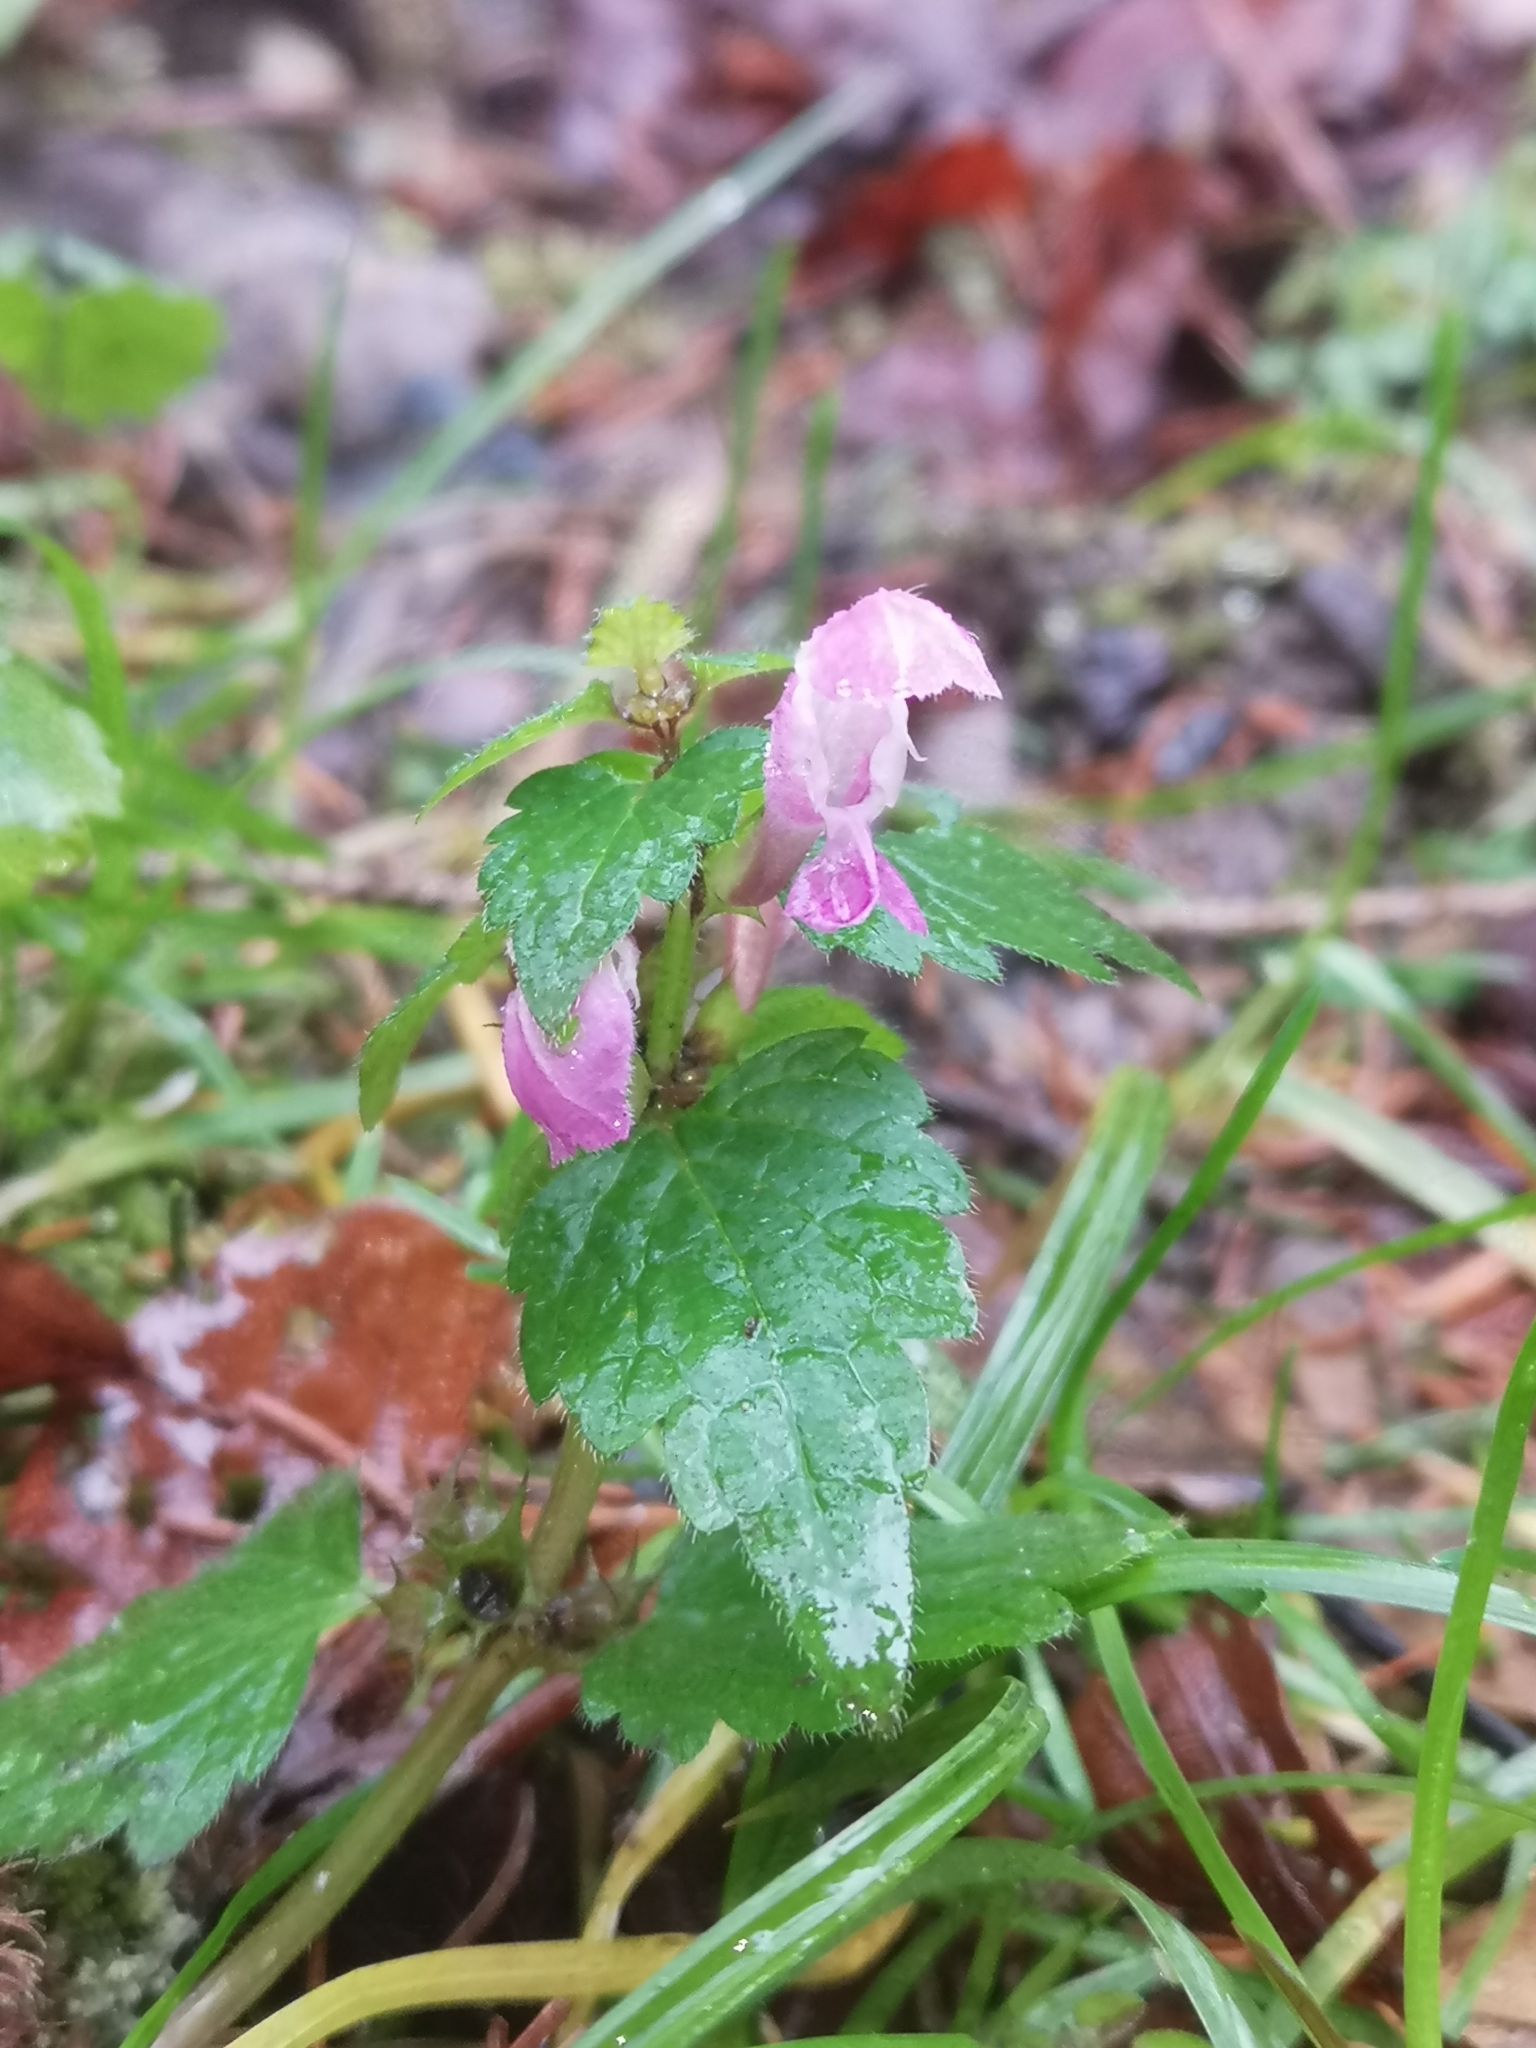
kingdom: Plantae
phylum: Tracheophyta
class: Magnoliopsida
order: Lamiales
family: Lamiaceae
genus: Lamium
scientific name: Lamium maculatum
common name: Spotted dead-nettle
